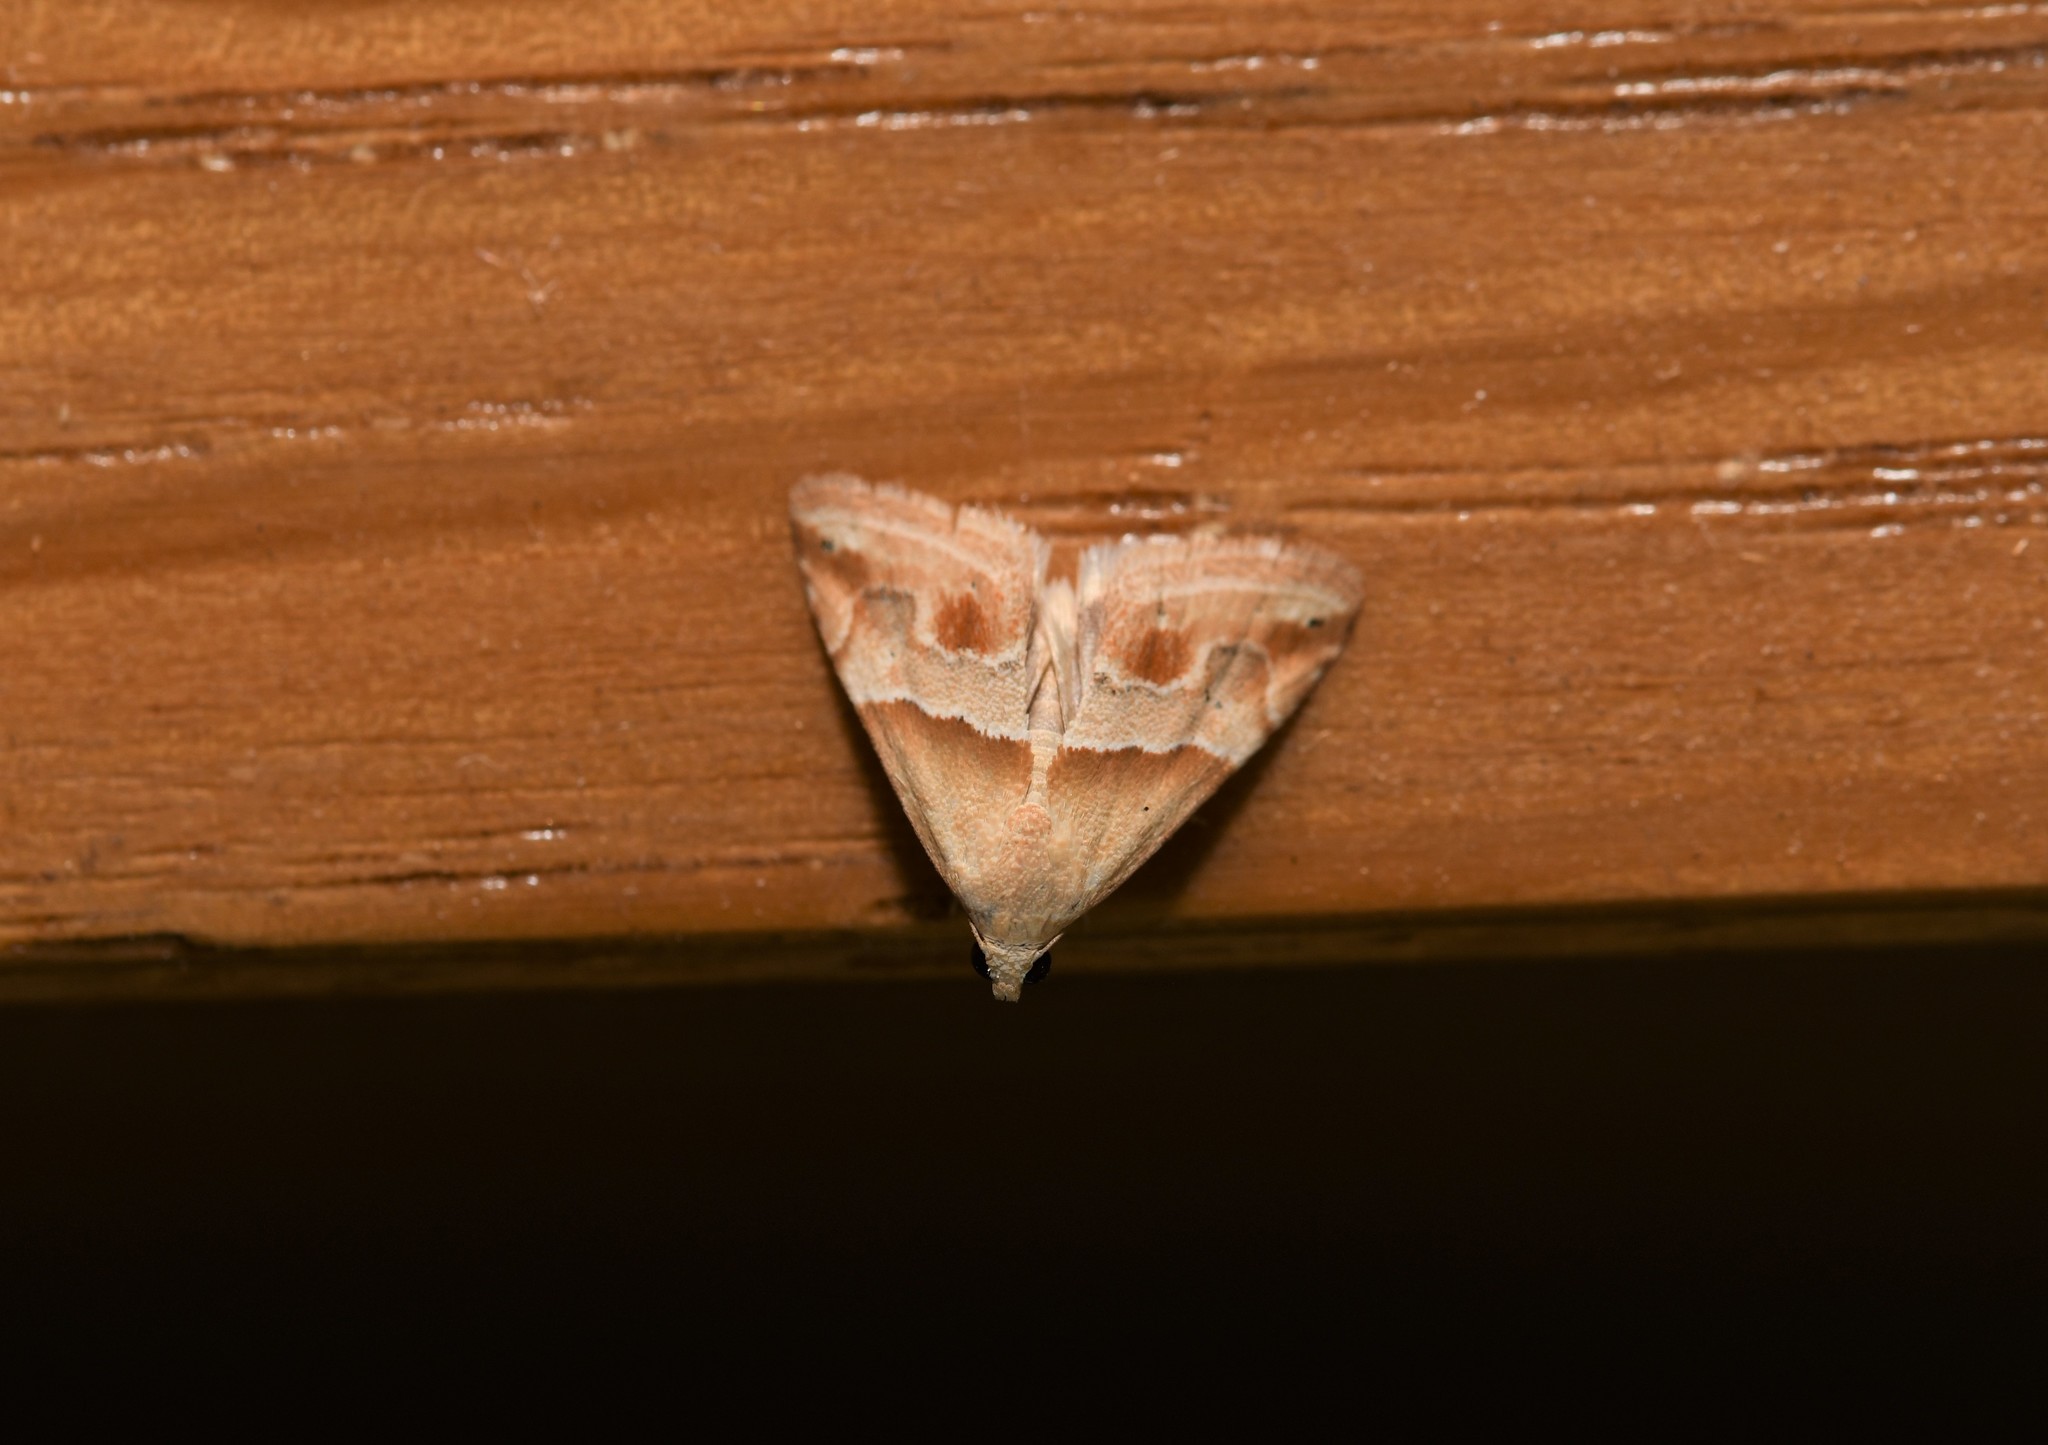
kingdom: Animalia
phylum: Arthropoda
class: Insecta
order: Lepidoptera
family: Noctuidae
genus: Eublemma
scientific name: Eublemma parva
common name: Small marbled
